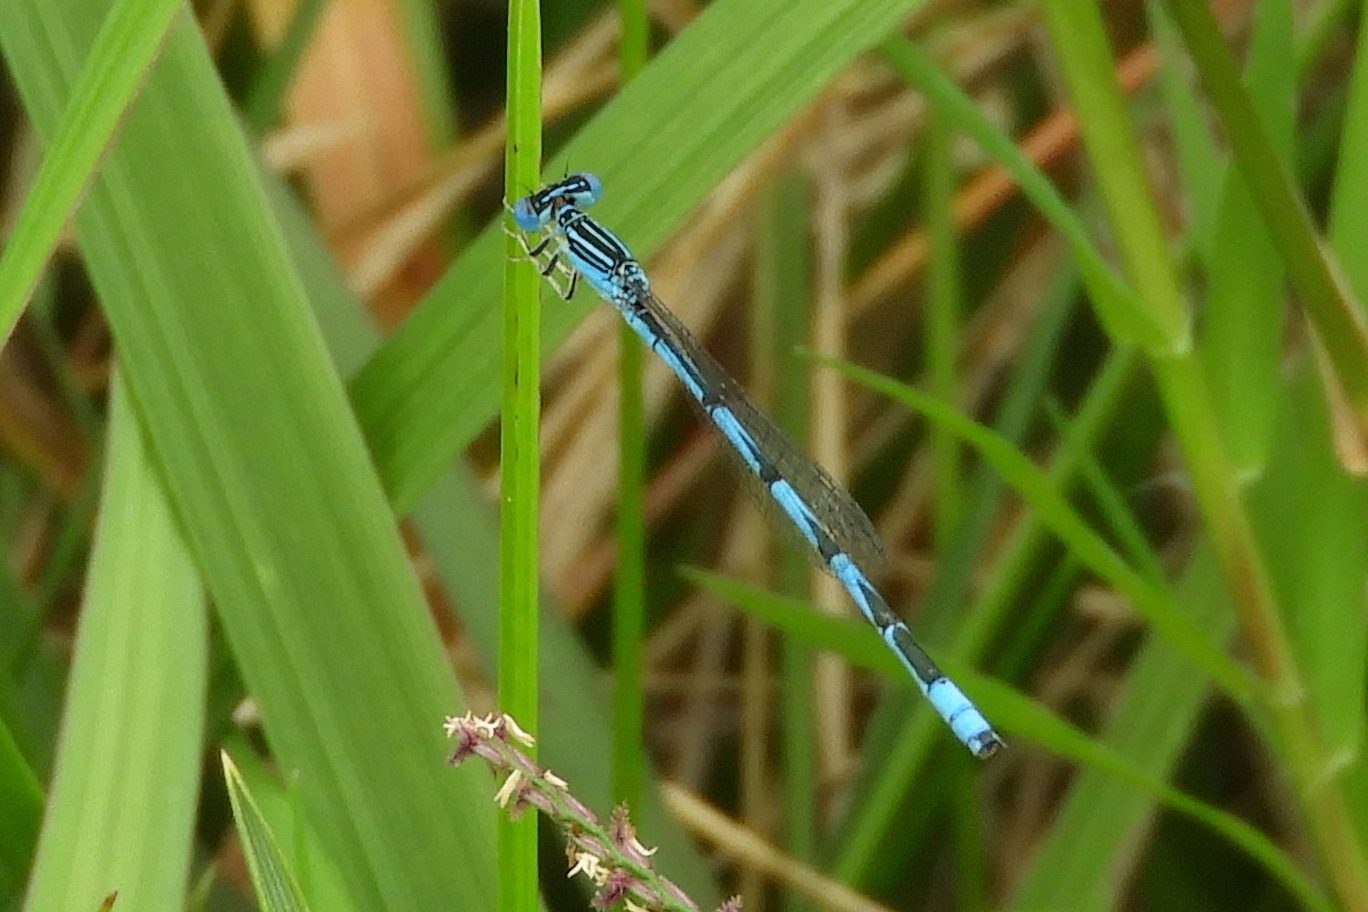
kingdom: Animalia
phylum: Arthropoda
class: Insecta
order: Odonata
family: Coenagrionidae
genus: Enallagma
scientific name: Enallagma basidens
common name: Double-striped bluet
